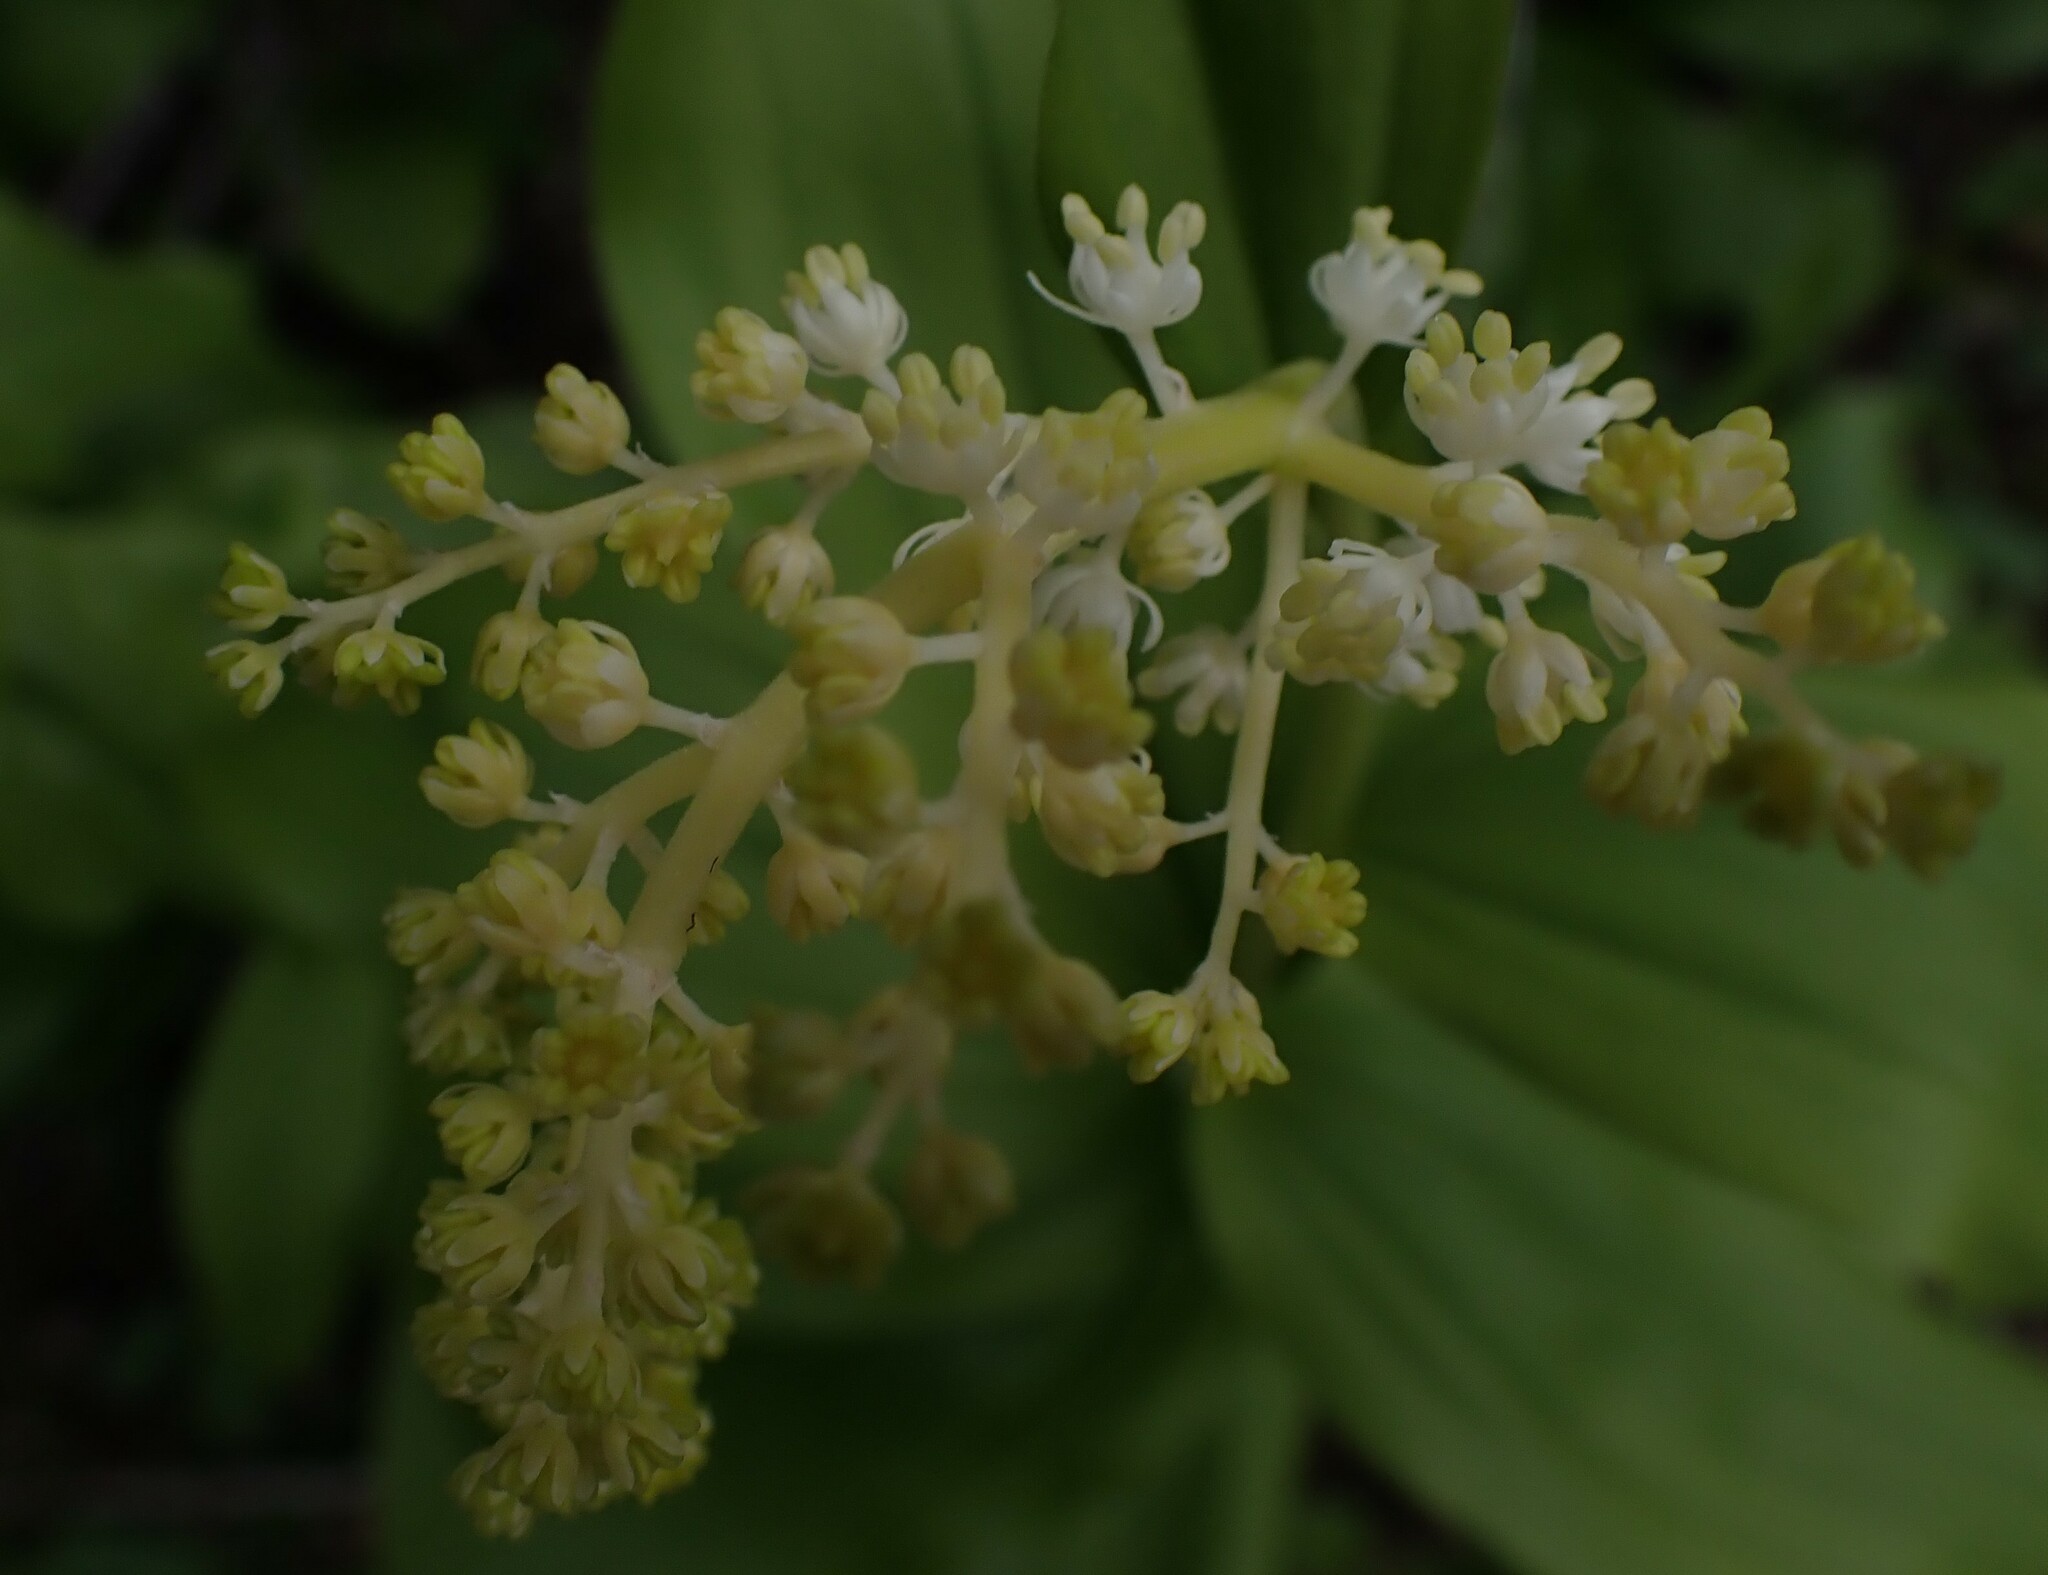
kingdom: Plantae
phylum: Tracheophyta
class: Liliopsida
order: Asparagales
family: Asparagaceae
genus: Maianthemum
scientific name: Maianthemum racemosum
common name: False spikenard
